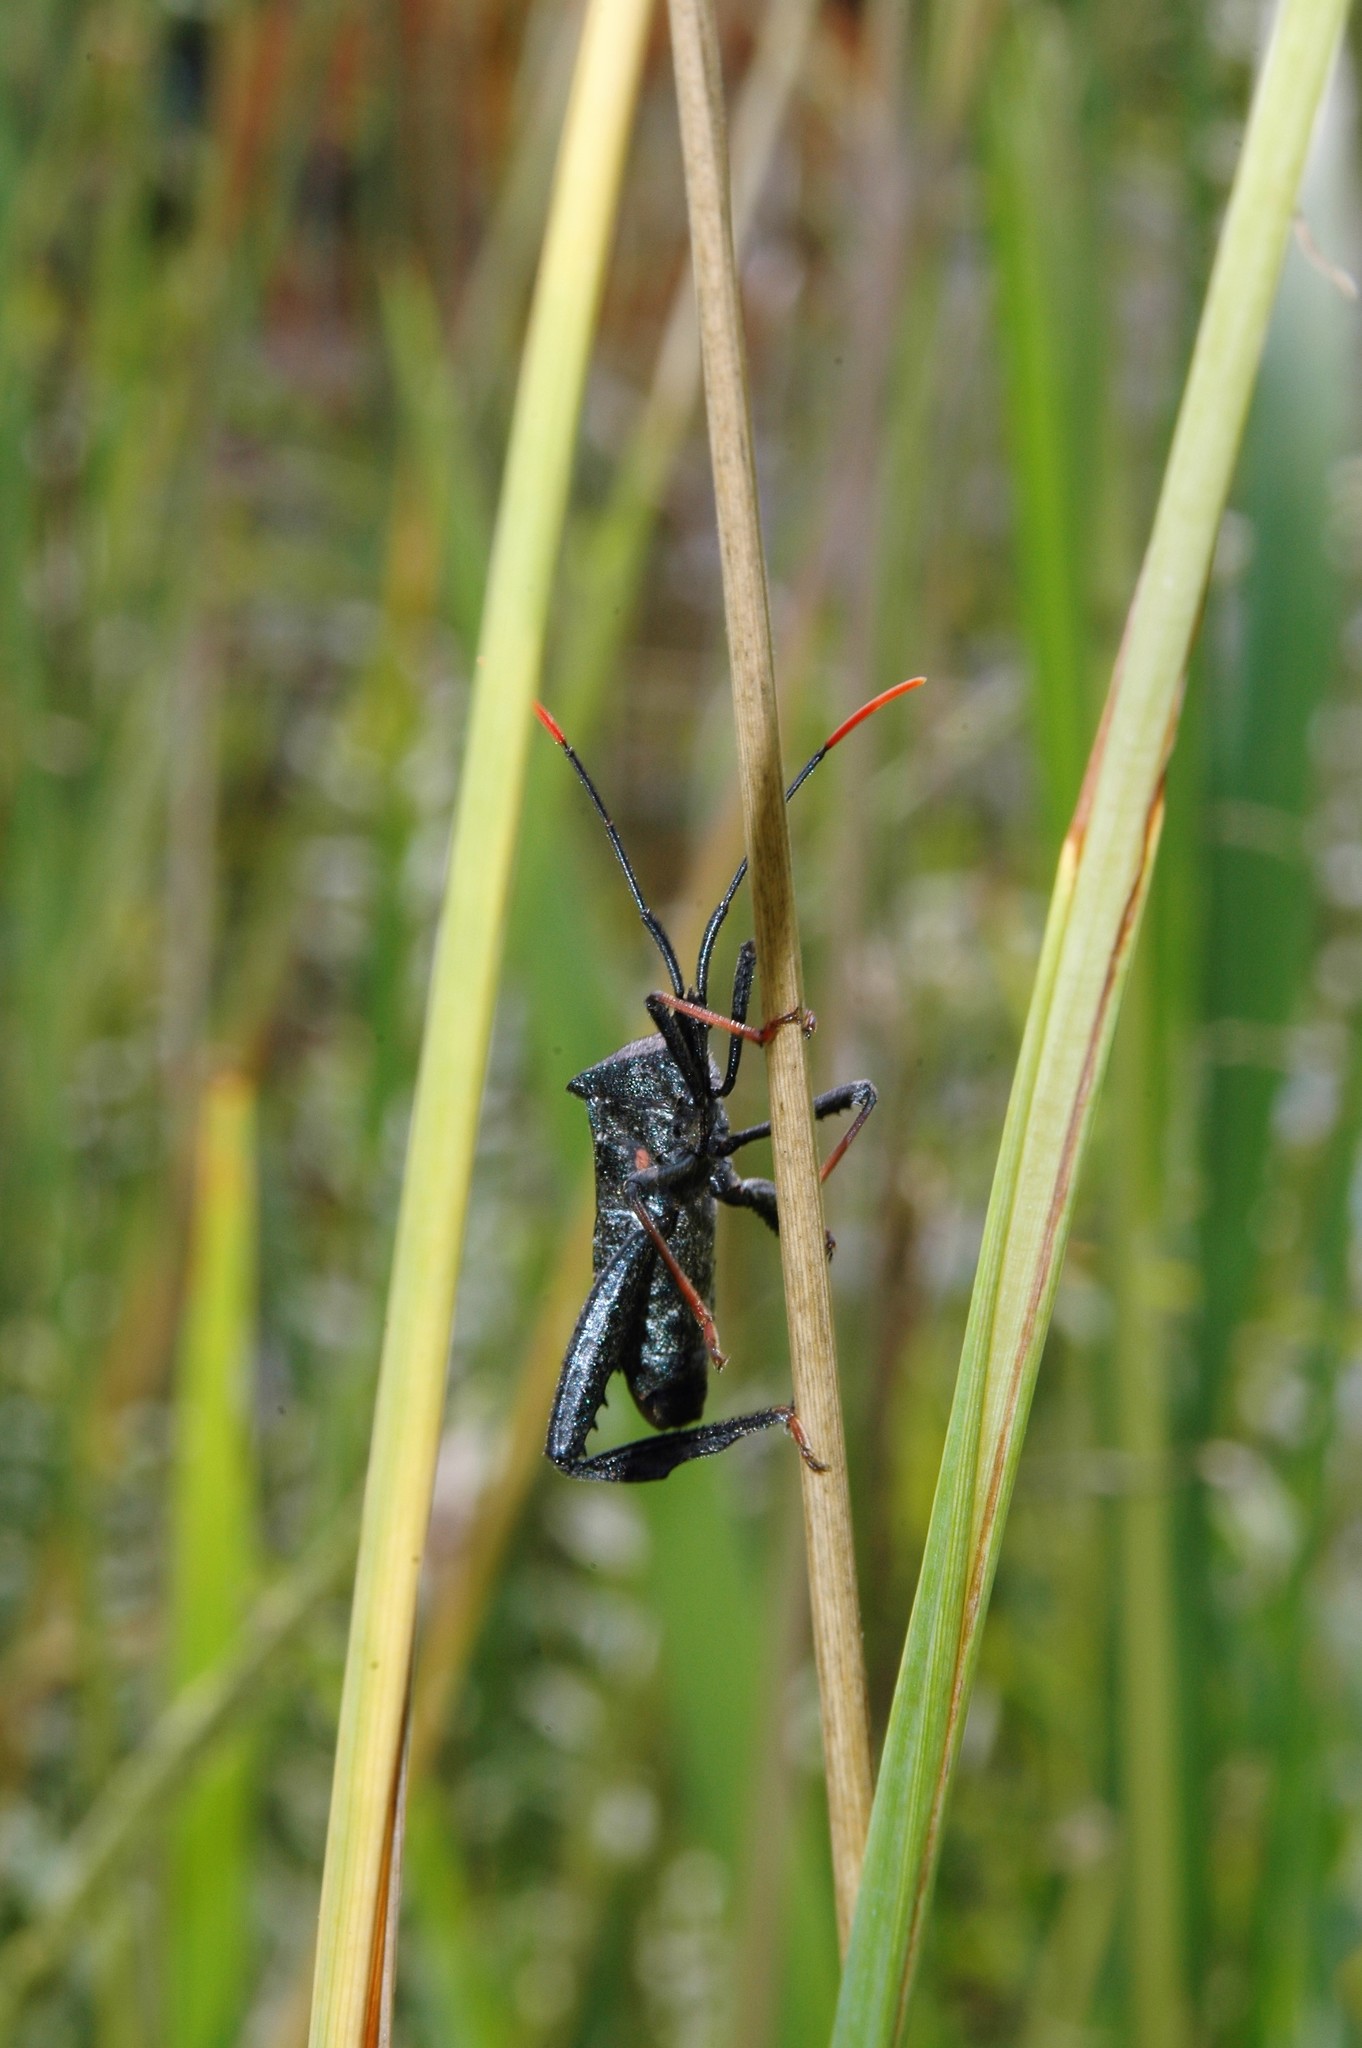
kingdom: Animalia
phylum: Arthropoda
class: Insecta
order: Hemiptera
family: Coreidae
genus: Acanthocephala
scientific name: Acanthocephala terminalis
